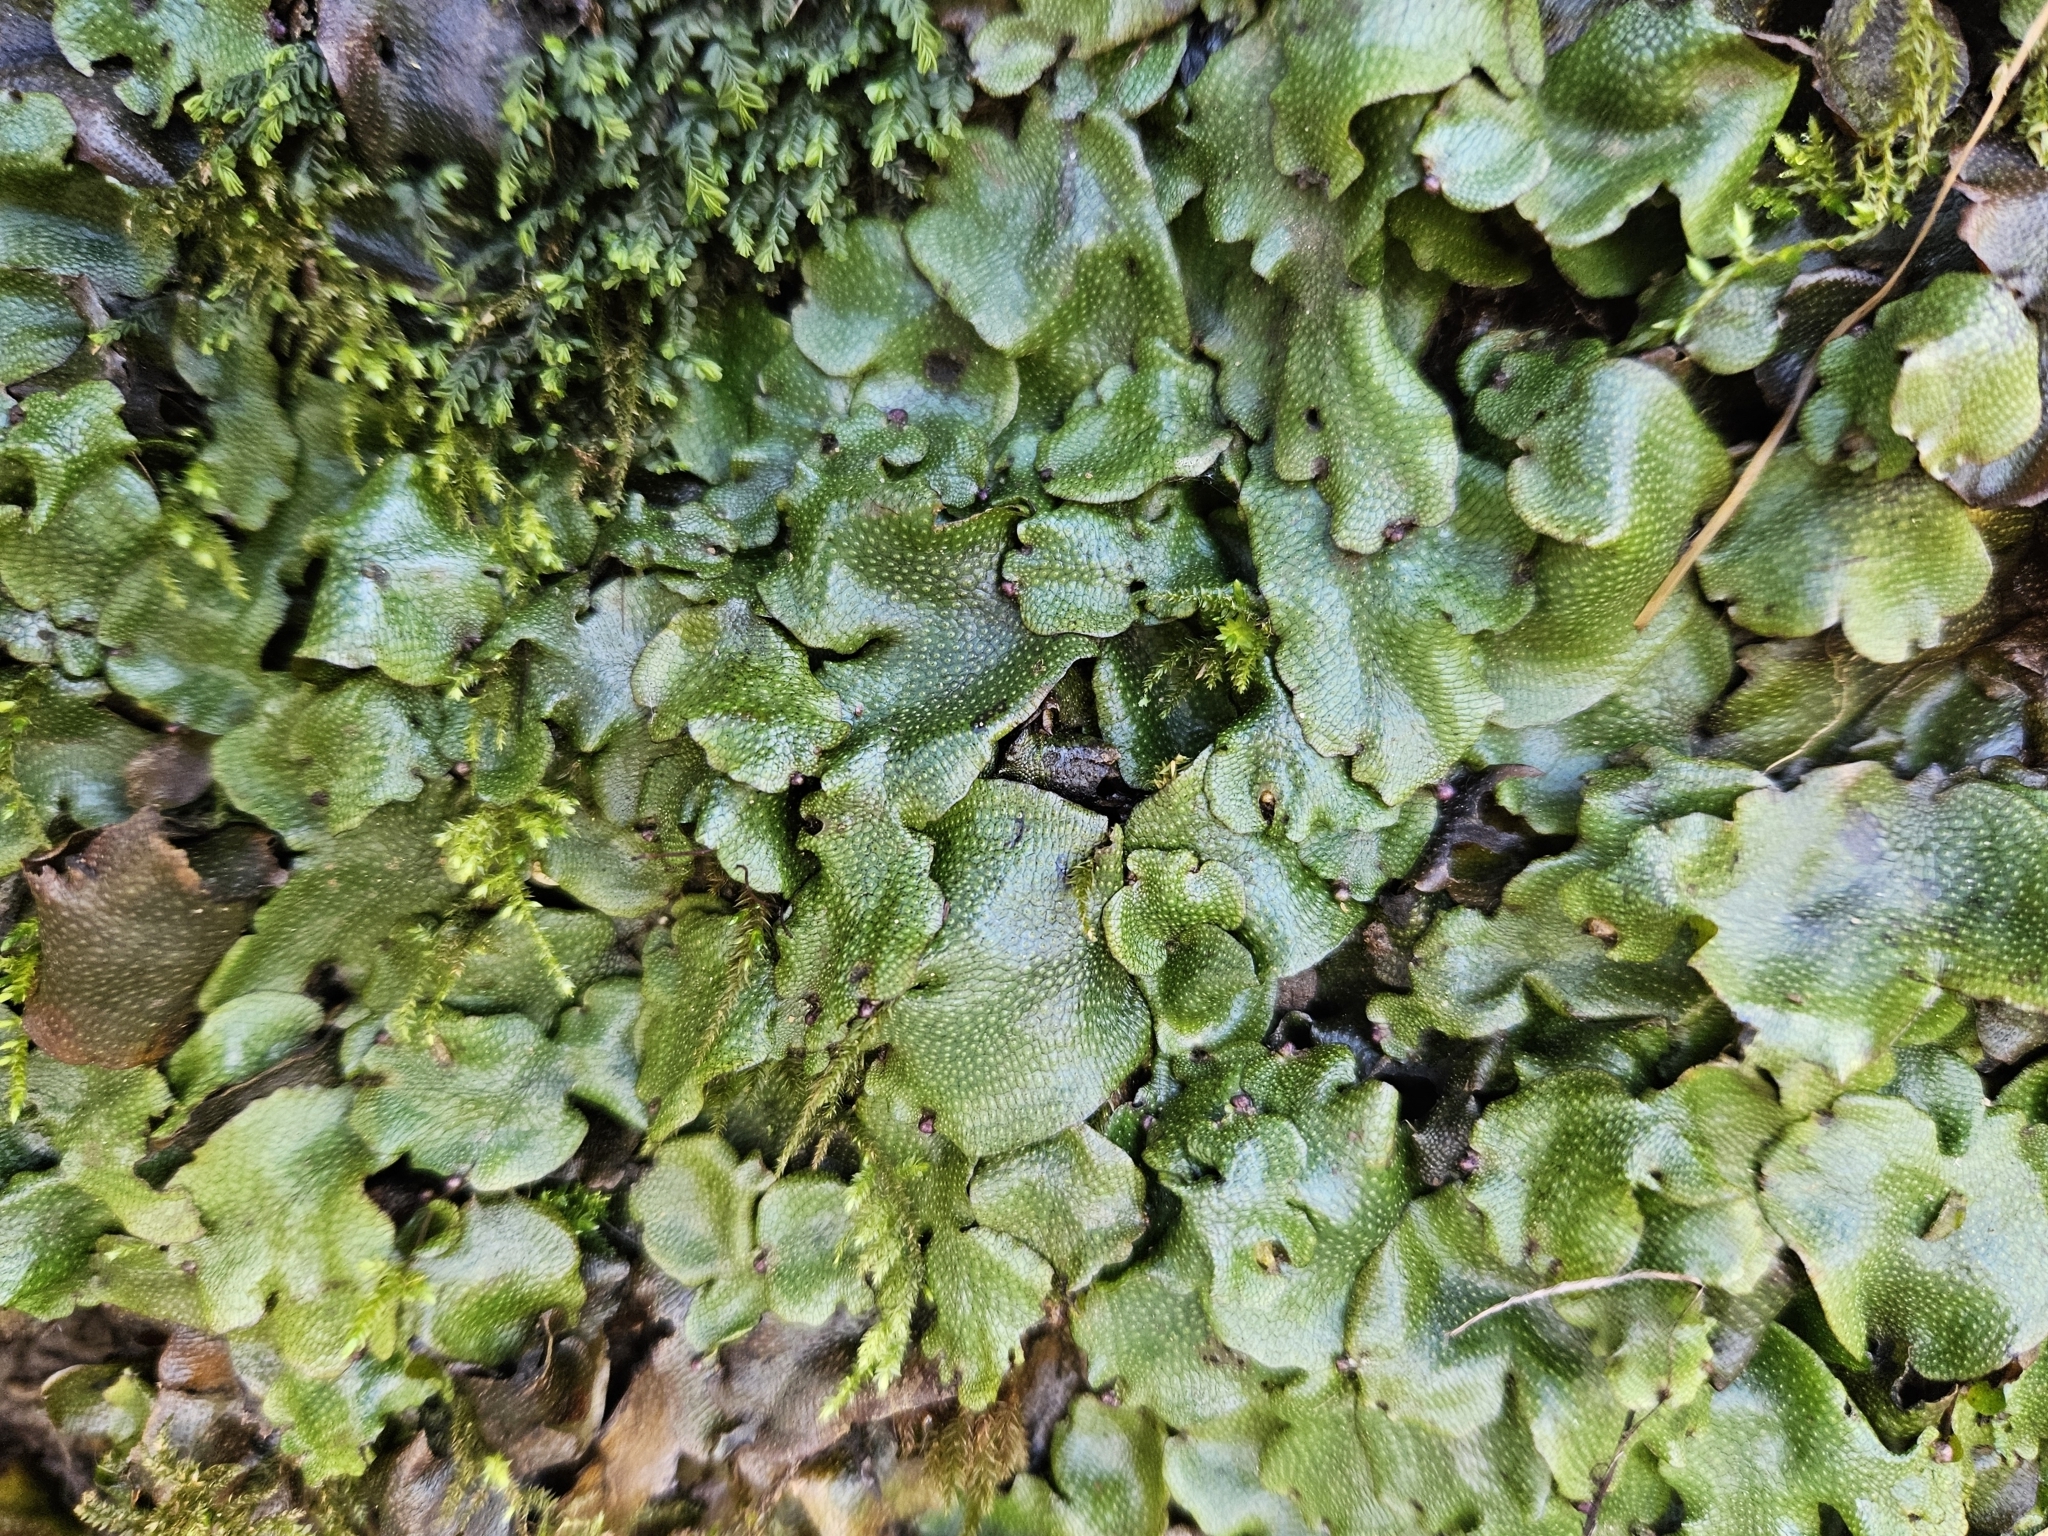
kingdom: Plantae
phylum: Marchantiophyta
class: Marchantiopsida
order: Marchantiales
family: Conocephalaceae
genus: Conocephalum
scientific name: Conocephalum conicum
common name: Great scented liverwort
